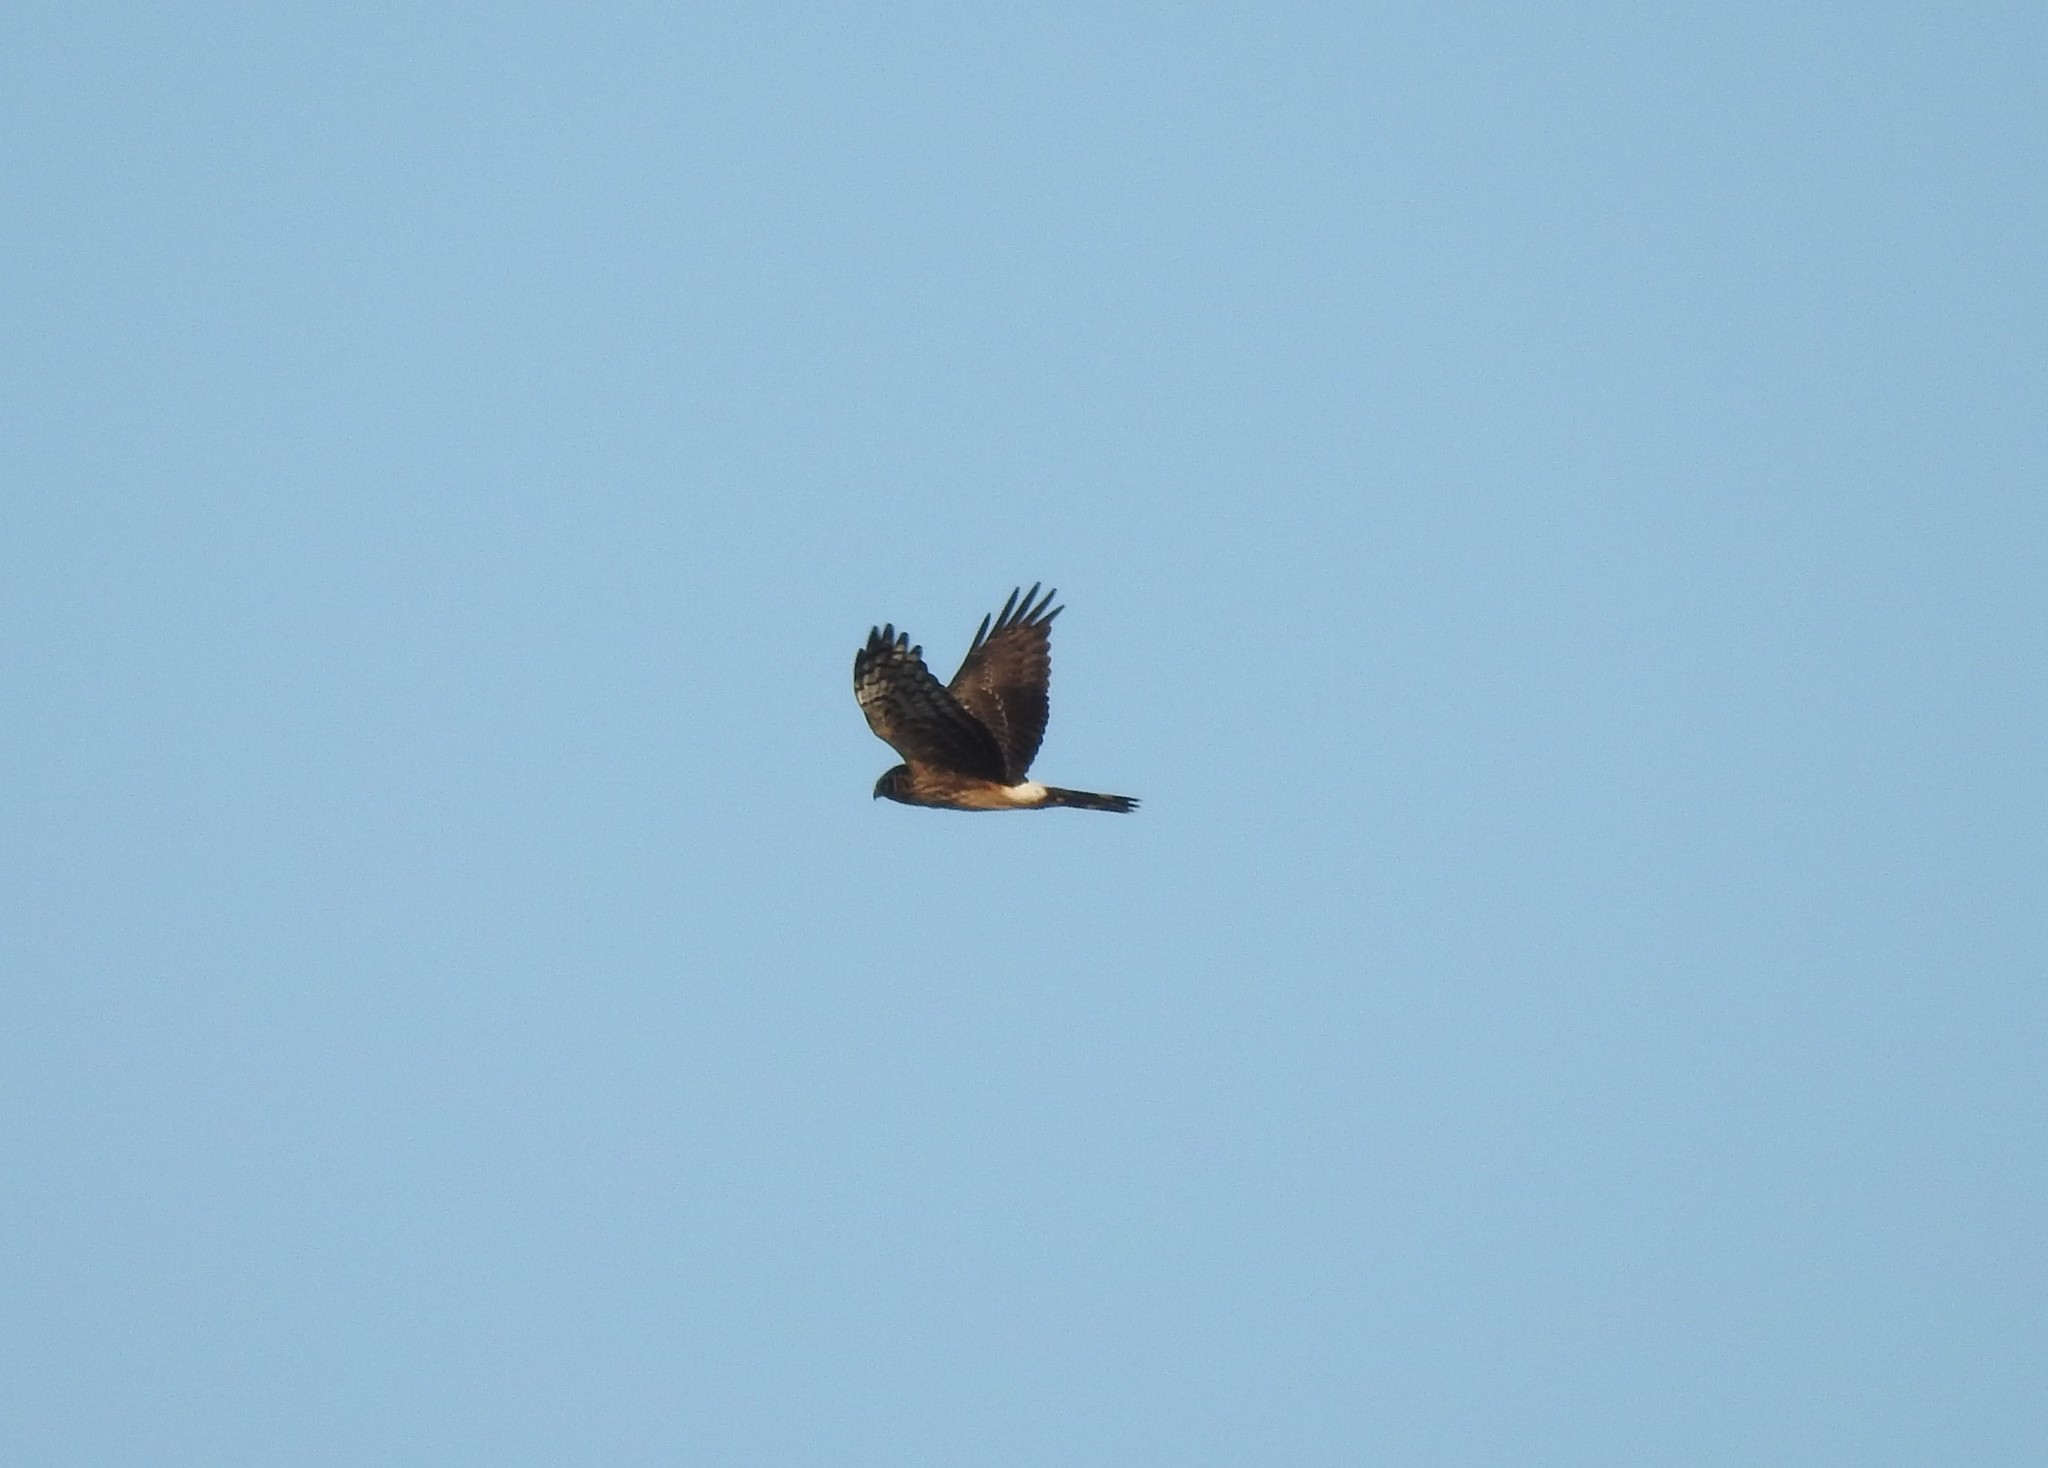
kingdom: Animalia
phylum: Chordata
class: Aves
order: Accipitriformes
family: Accipitridae
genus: Circus
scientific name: Circus cyaneus
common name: Hen harrier
